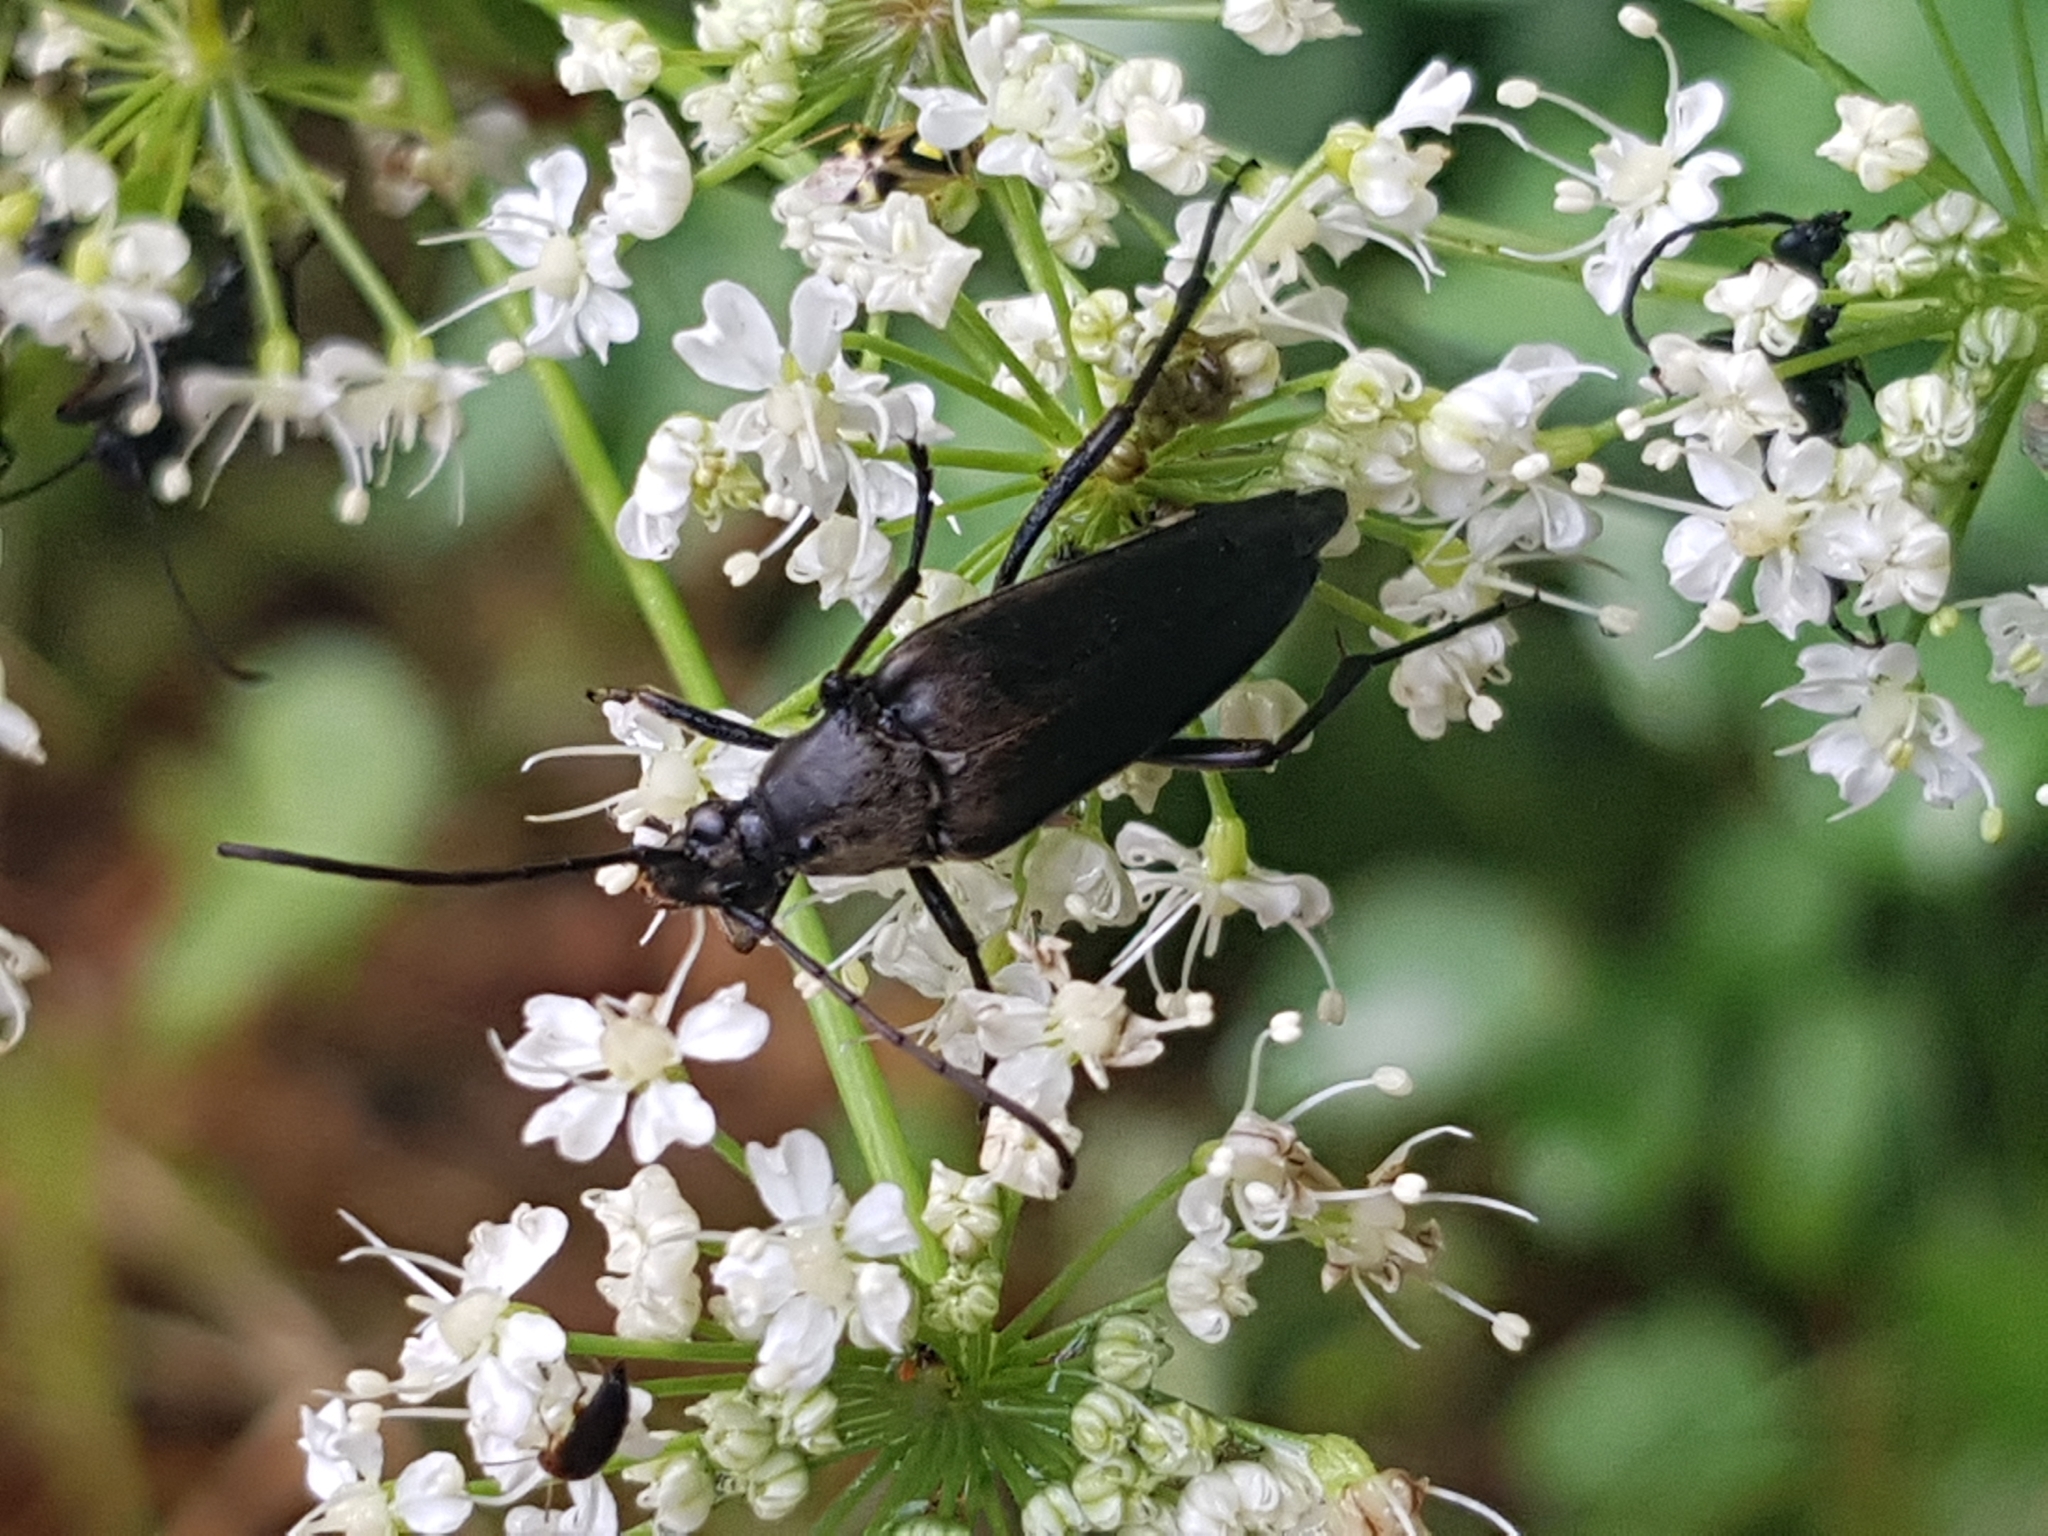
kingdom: Animalia
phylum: Arthropoda
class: Insecta
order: Coleoptera
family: Cerambycidae
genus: Etorofus
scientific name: Etorofus pubescens
